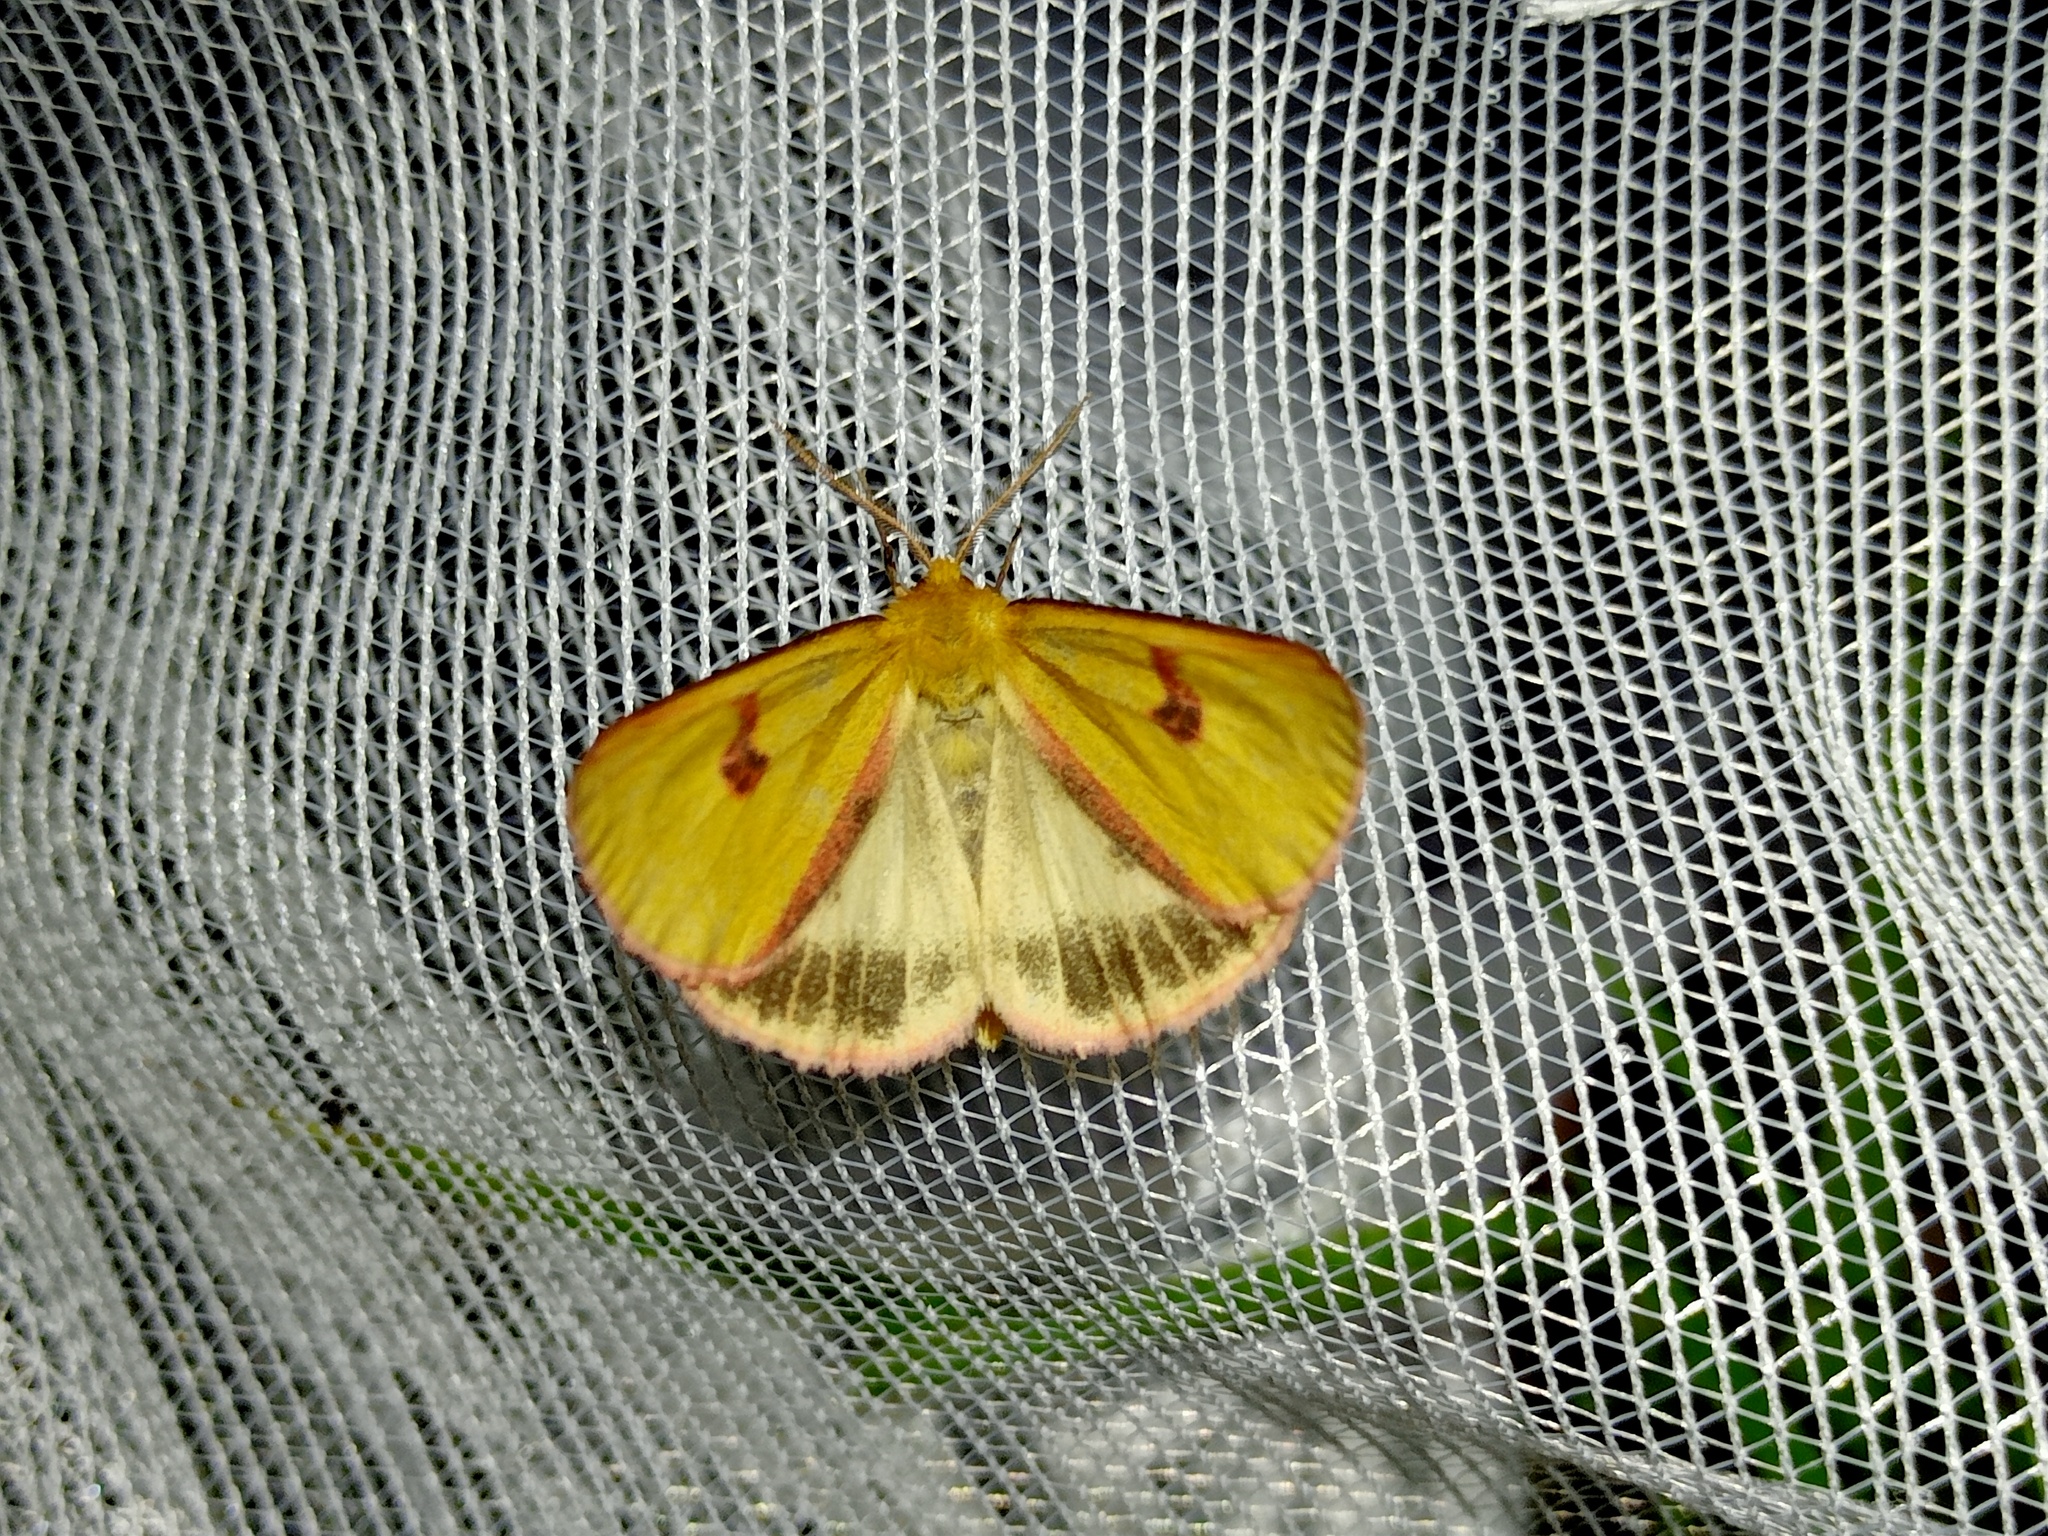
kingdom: Animalia
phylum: Arthropoda
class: Insecta
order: Lepidoptera
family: Erebidae
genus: Diacrisia
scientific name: Diacrisia sannio
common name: Clouded buff
